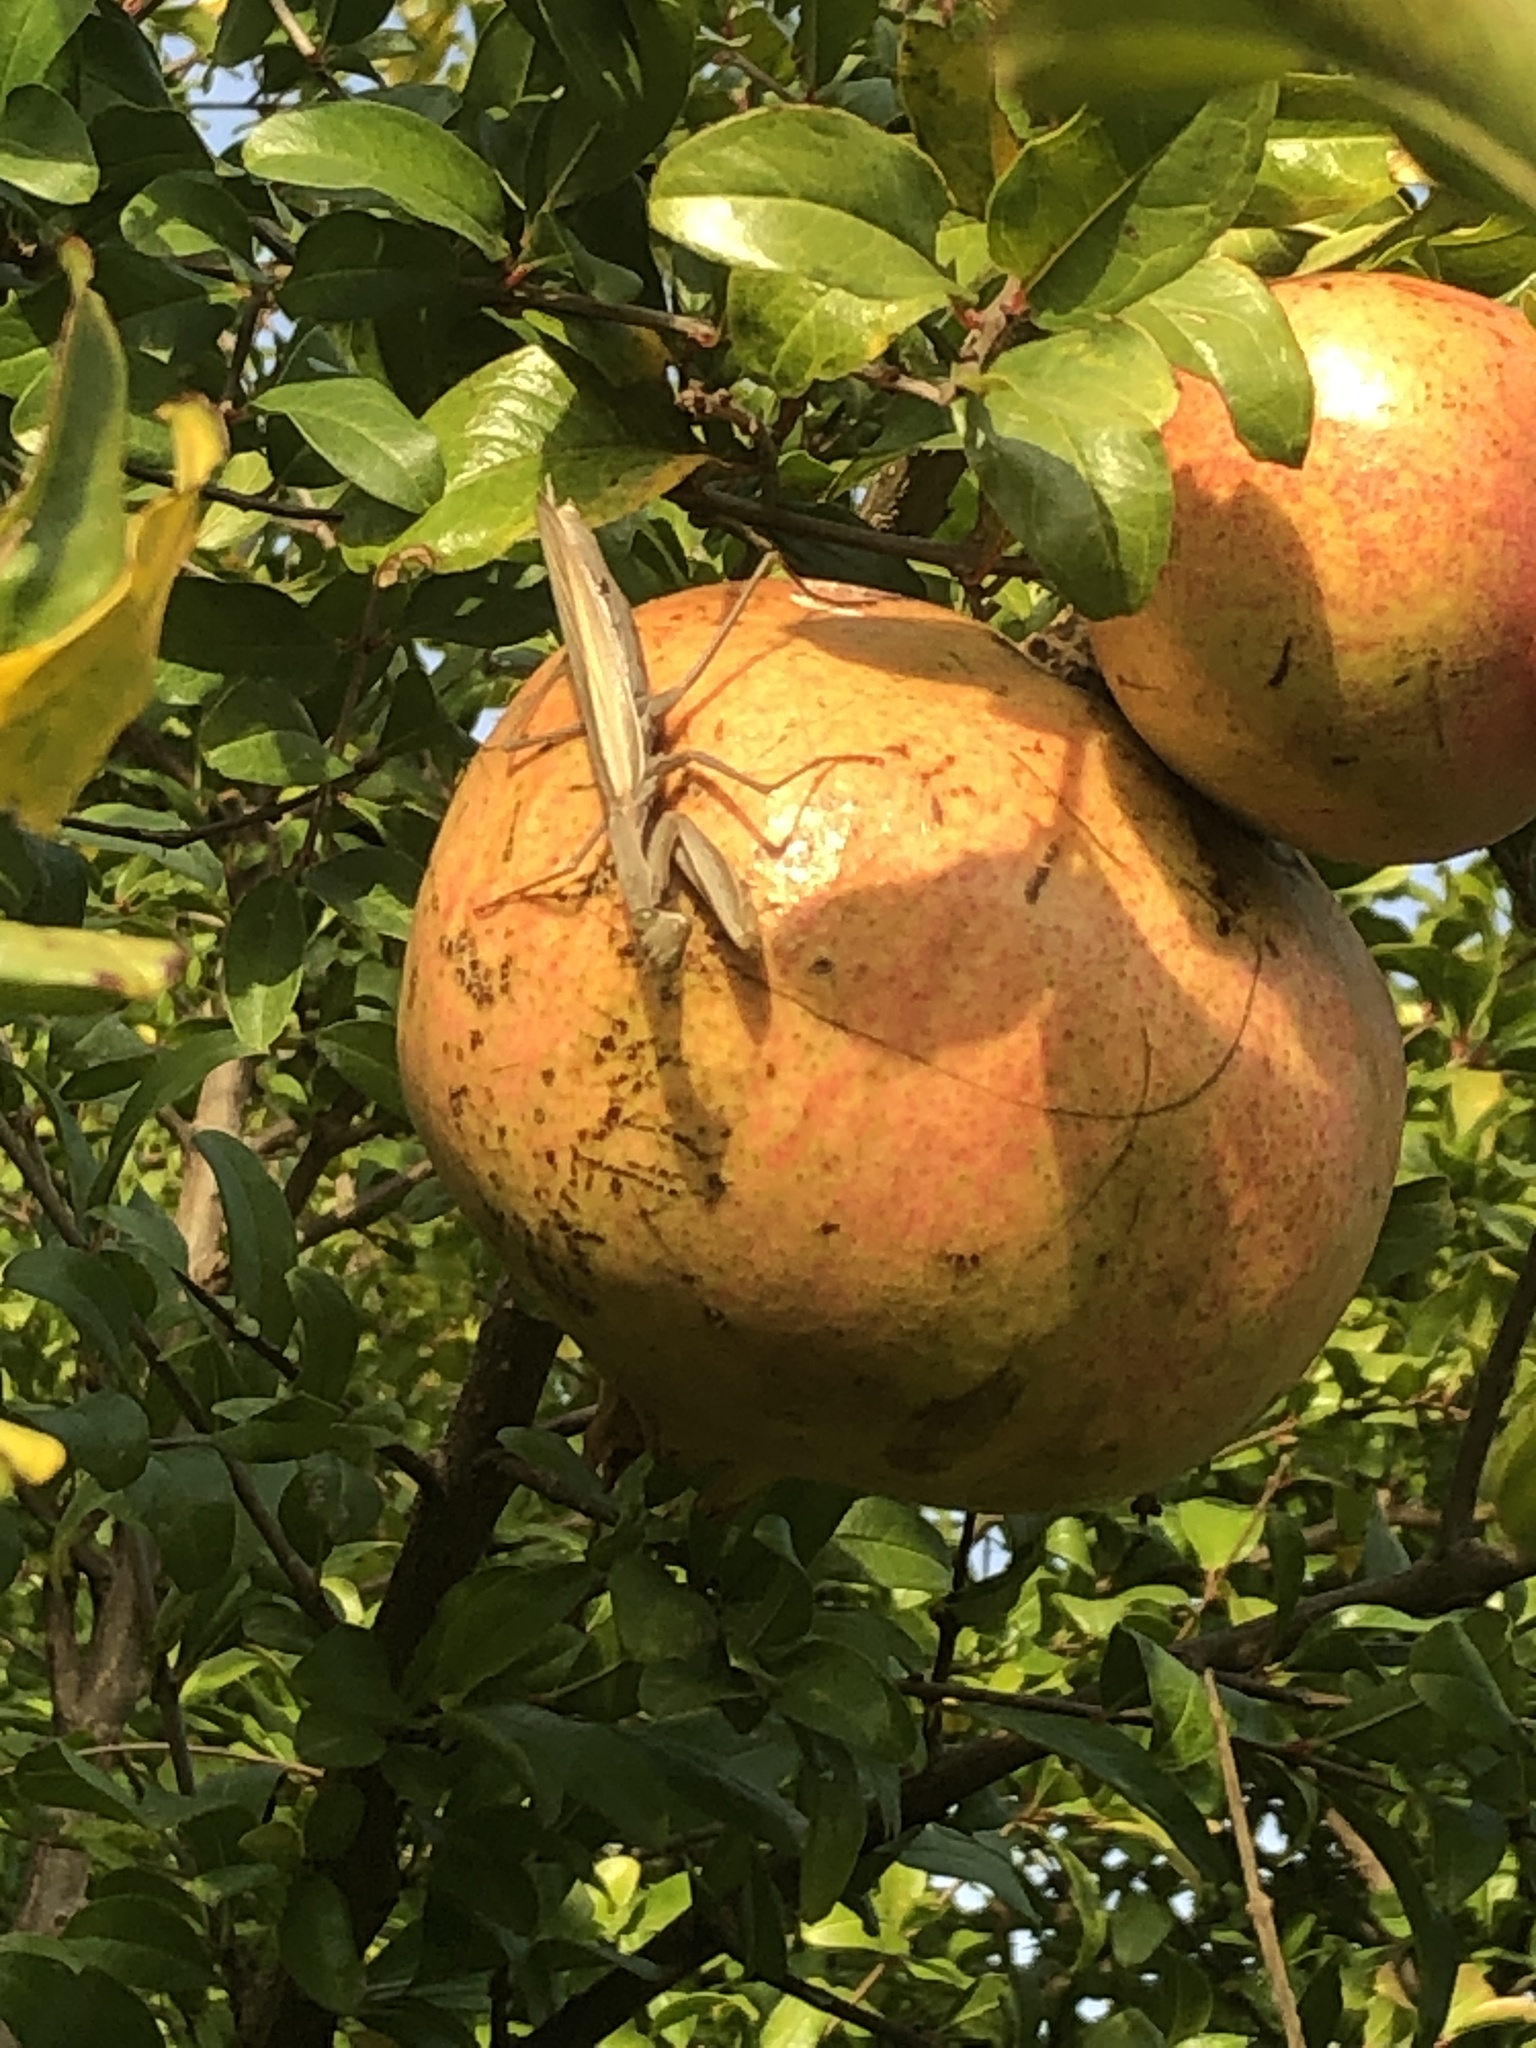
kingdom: Animalia
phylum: Arthropoda
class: Insecta
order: Mantodea
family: Mantidae
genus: Mantis
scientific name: Mantis religiosa
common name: Praying mantis
